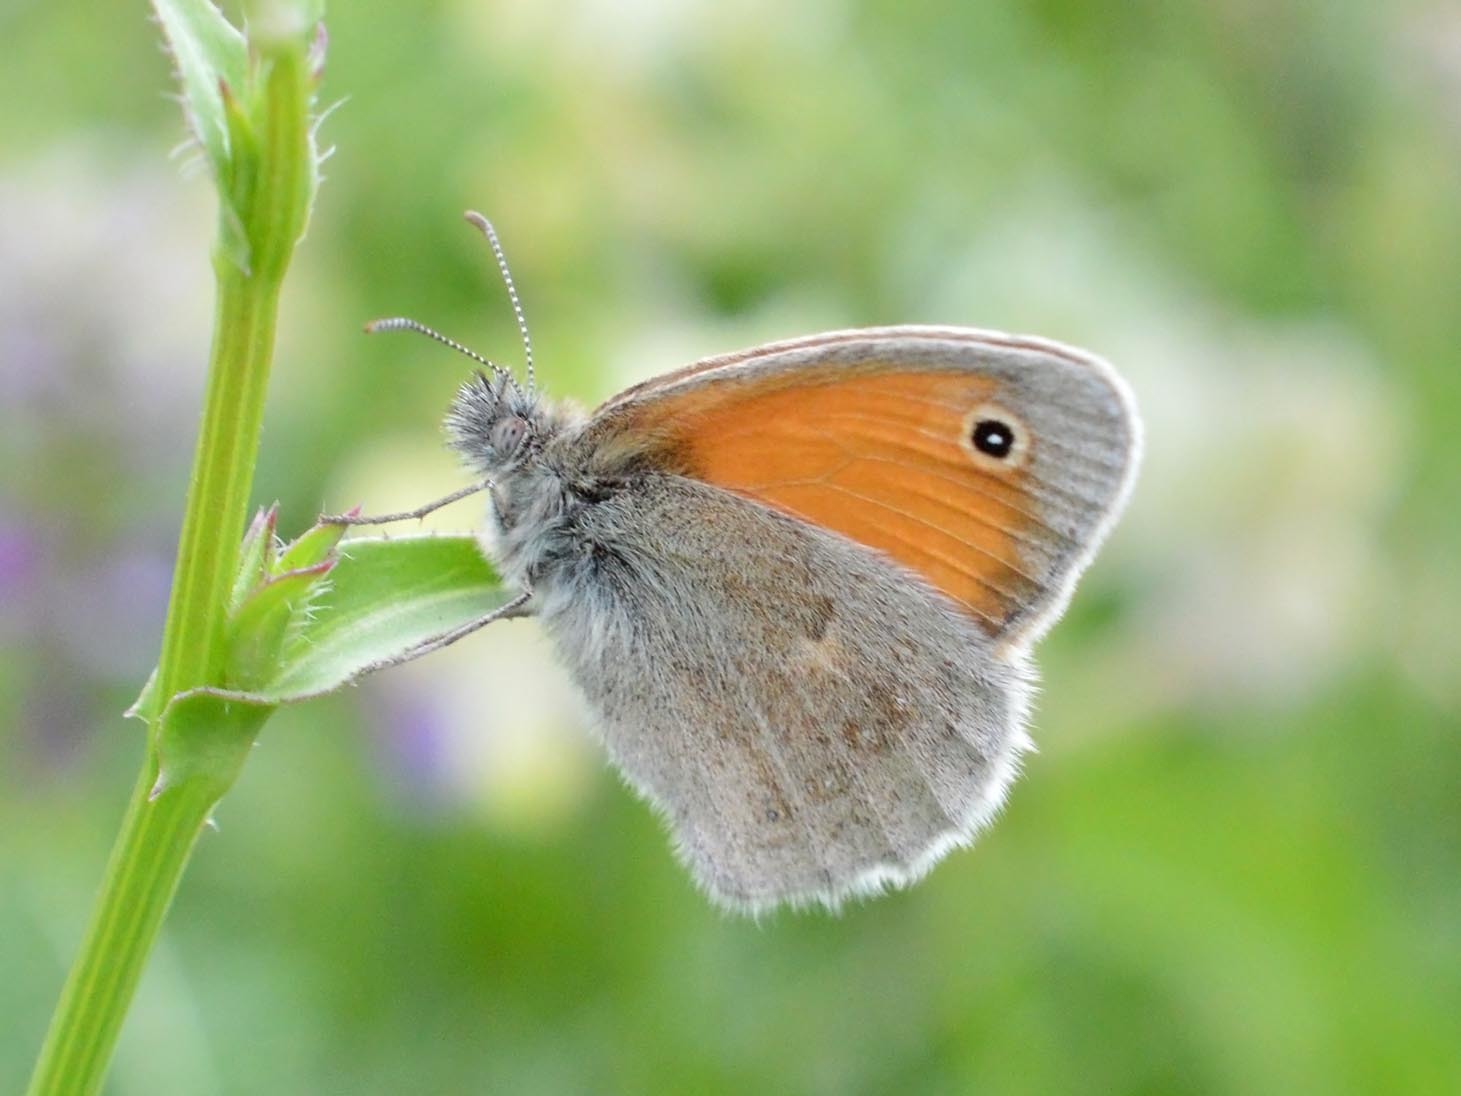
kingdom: Animalia
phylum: Arthropoda
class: Insecta
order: Lepidoptera
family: Nymphalidae
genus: Coenonympha
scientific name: Coenonympha pamphilus
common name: Small heath
